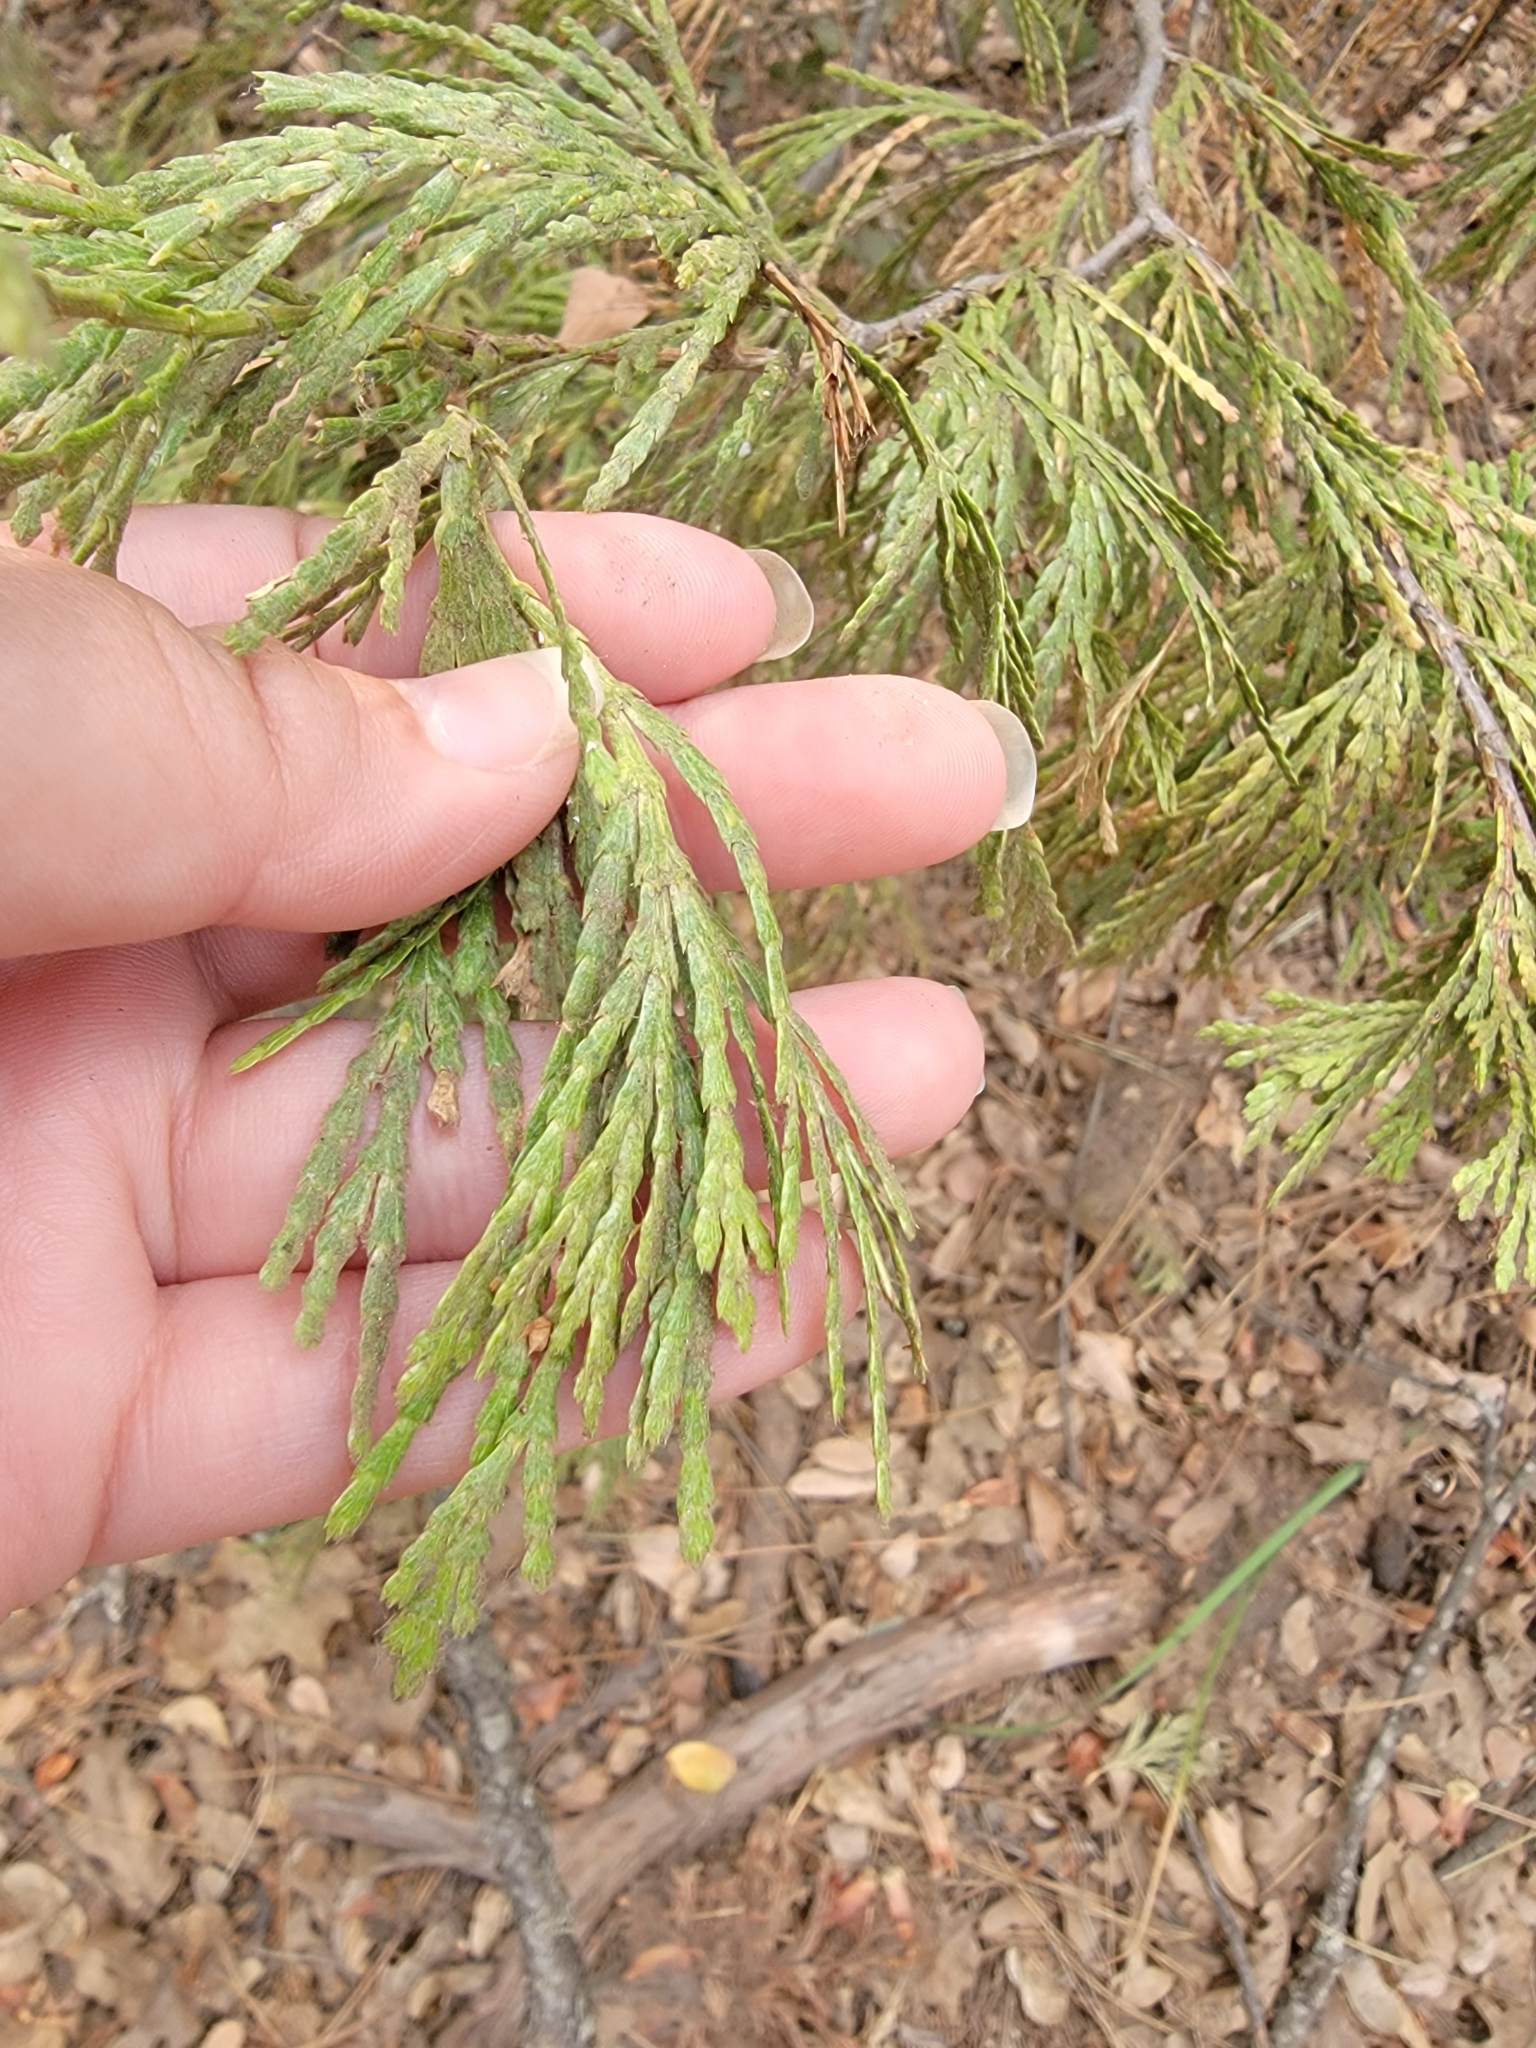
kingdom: Plantae
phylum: Tracheophyta
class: Pinopsida
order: Pinales
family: Cupressaceae
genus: Calocedrus
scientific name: Calocedrus decurrens
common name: Californian incense-cedar
